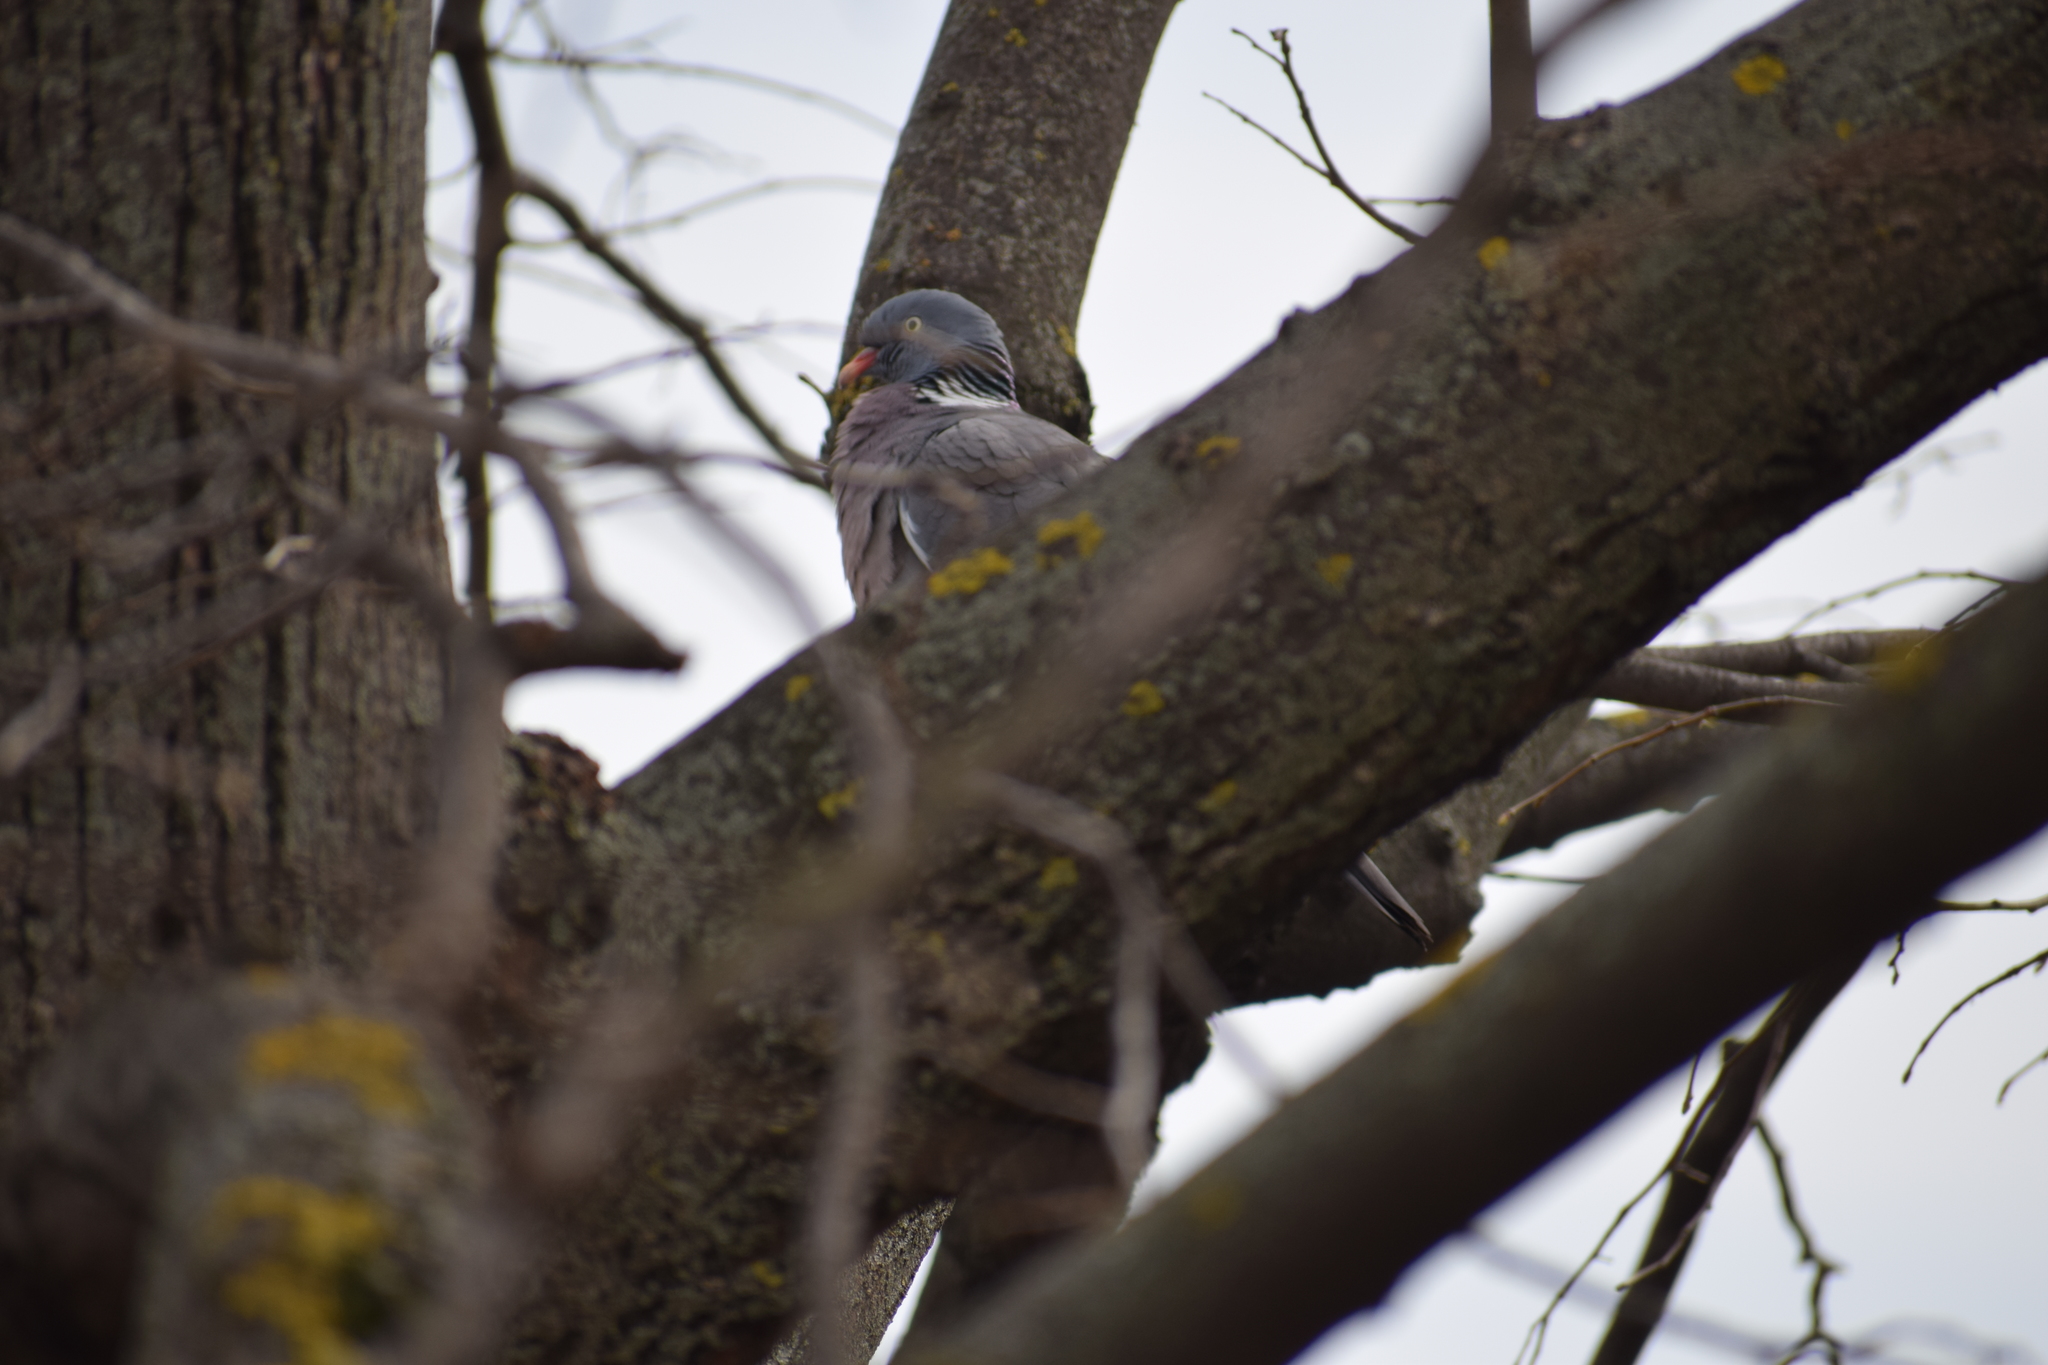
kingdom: Animalia
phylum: Chordata
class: Aves
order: Columbiformes
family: Columbidae
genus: Columba
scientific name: Columba palumbus
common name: Common wood pigeon
